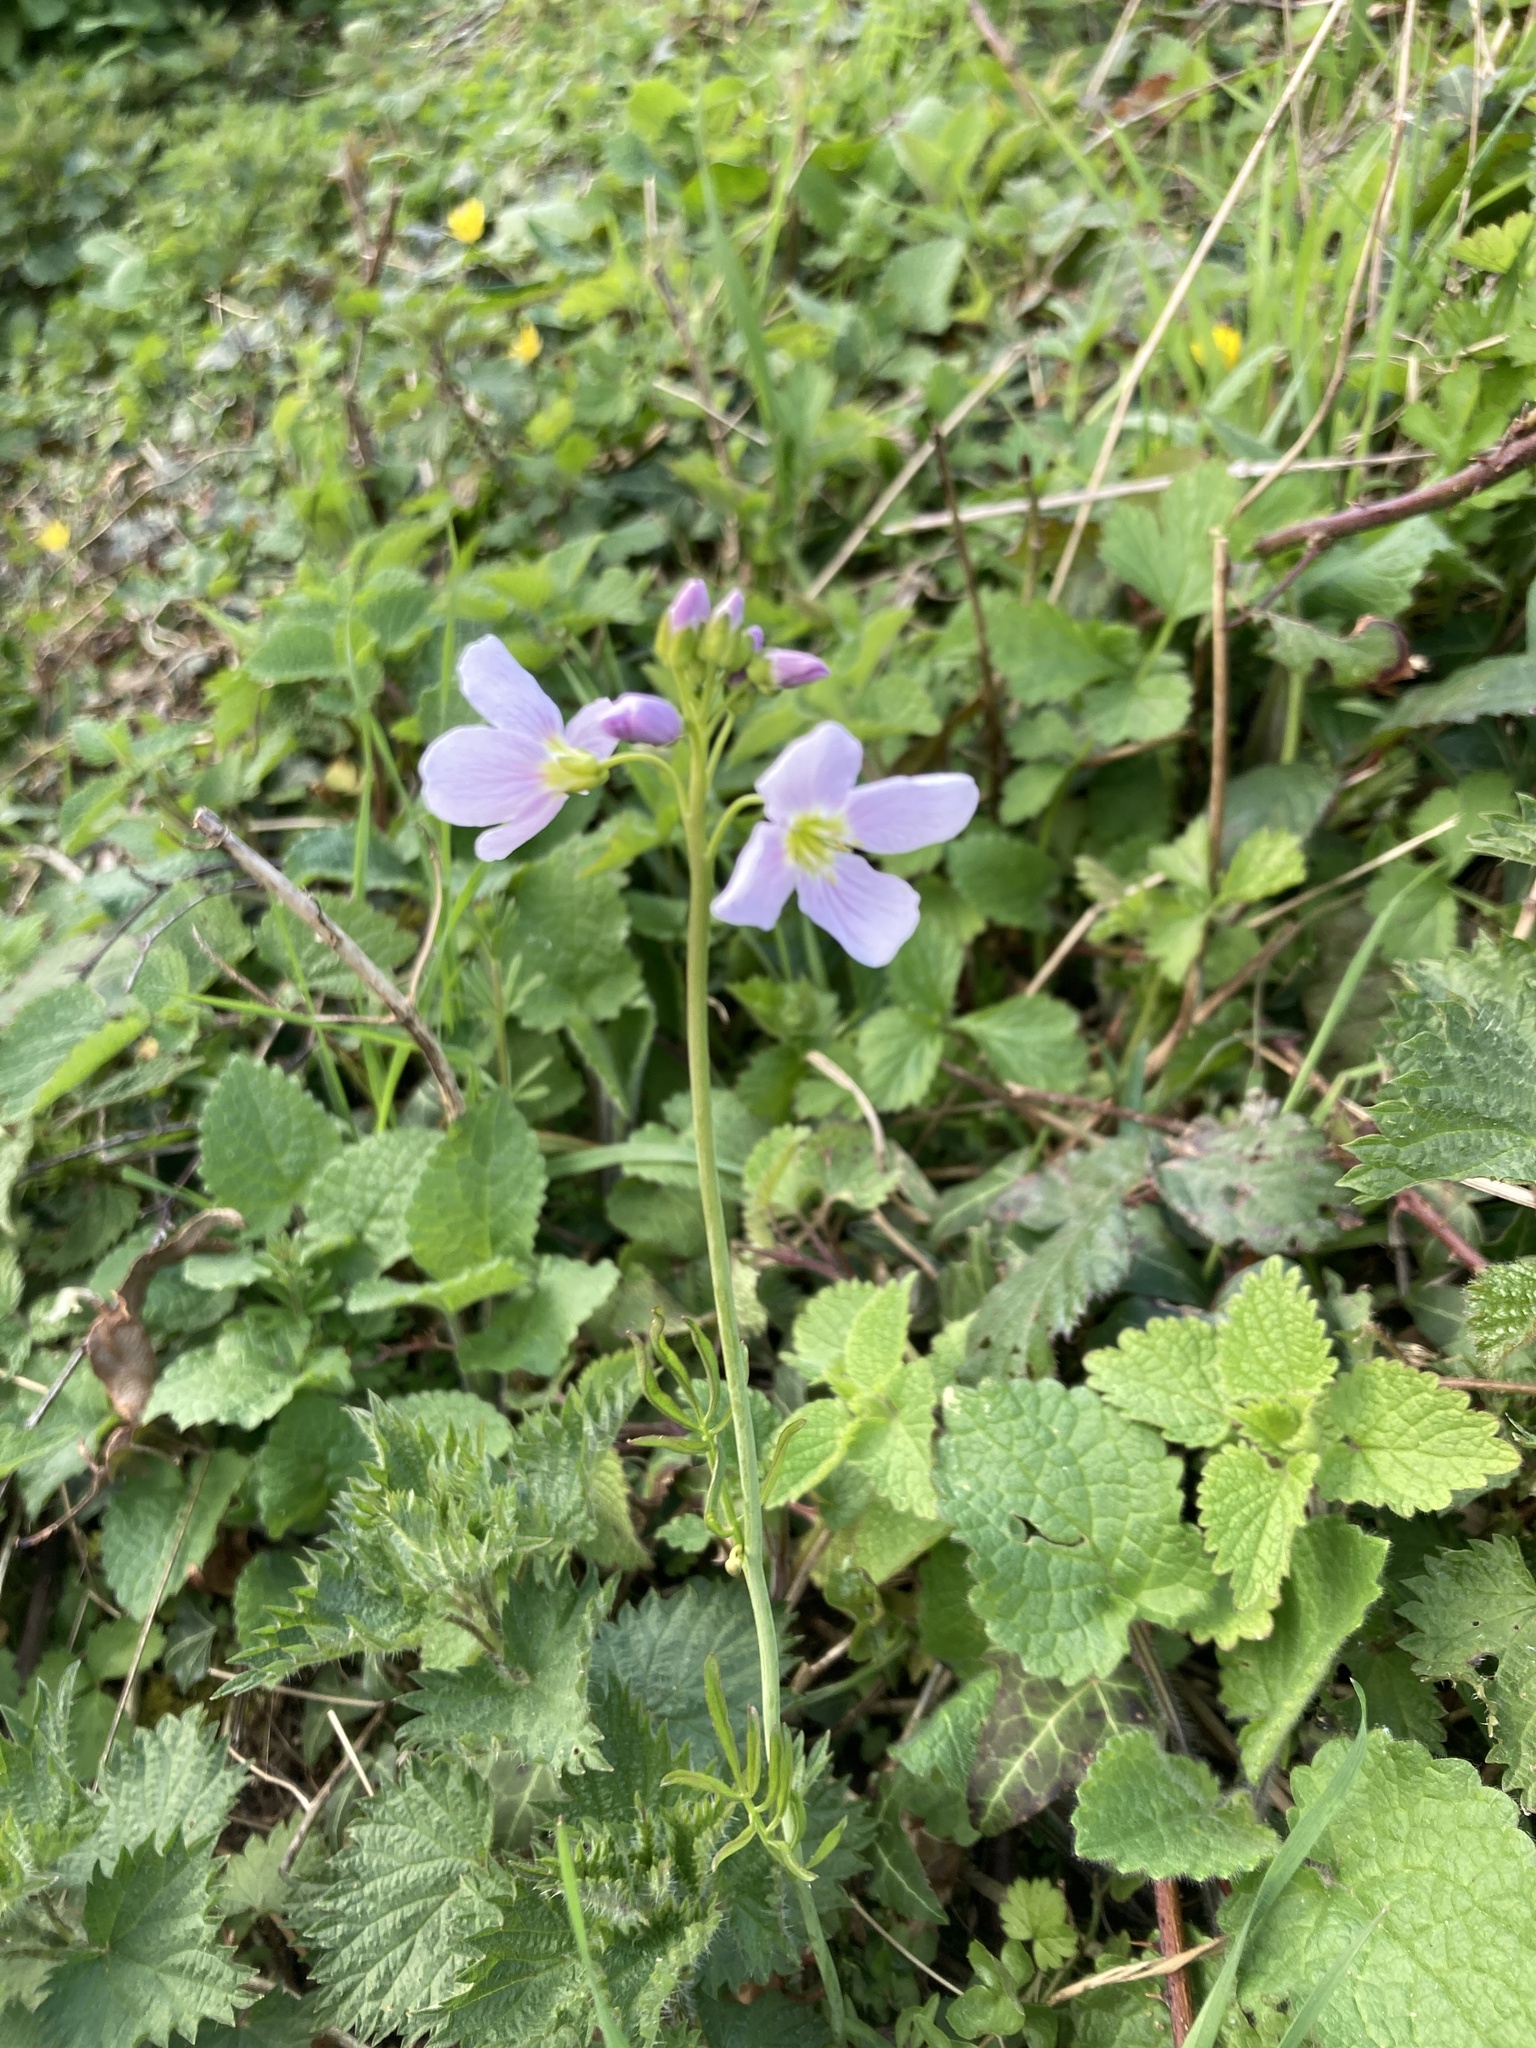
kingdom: Plantae
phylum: Tracheophyta
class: Magnoliopsida
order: Brassicales
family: Brassicaceae
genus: Cardamine
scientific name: Cardamine pratensis
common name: Cuckoo flower
